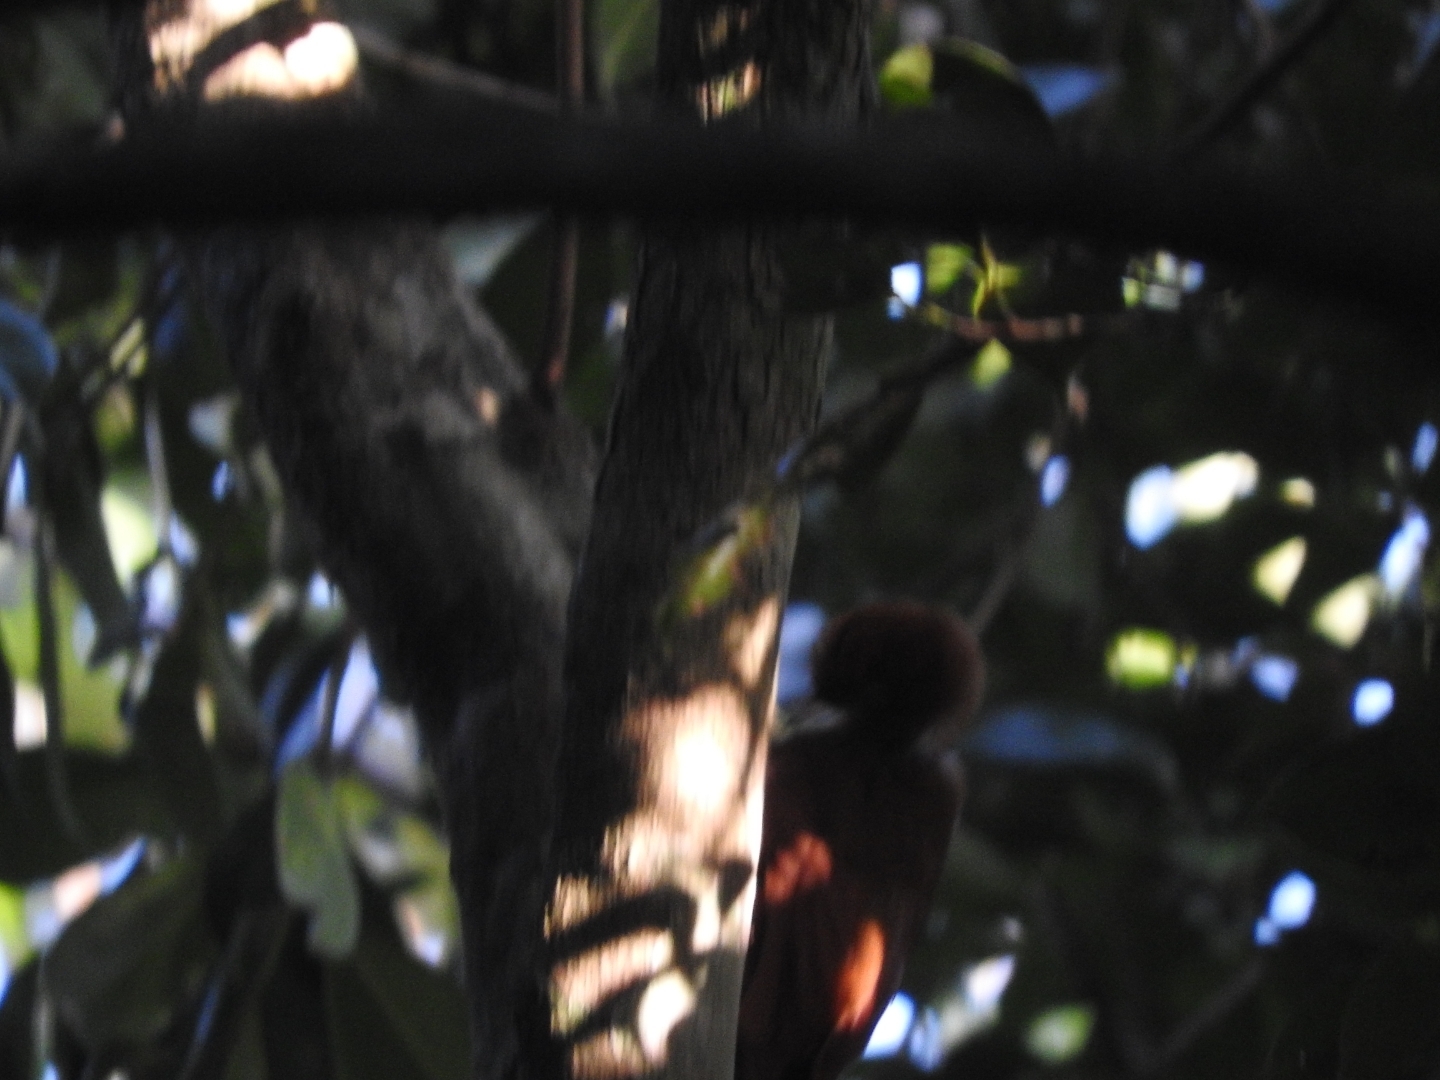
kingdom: Animalia
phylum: Chordata
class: Aves
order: Passeriformes
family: Furnariidae
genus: Dendrocincla
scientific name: Dendrocincla anabatina
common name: Tawny-winged woodcreeper
